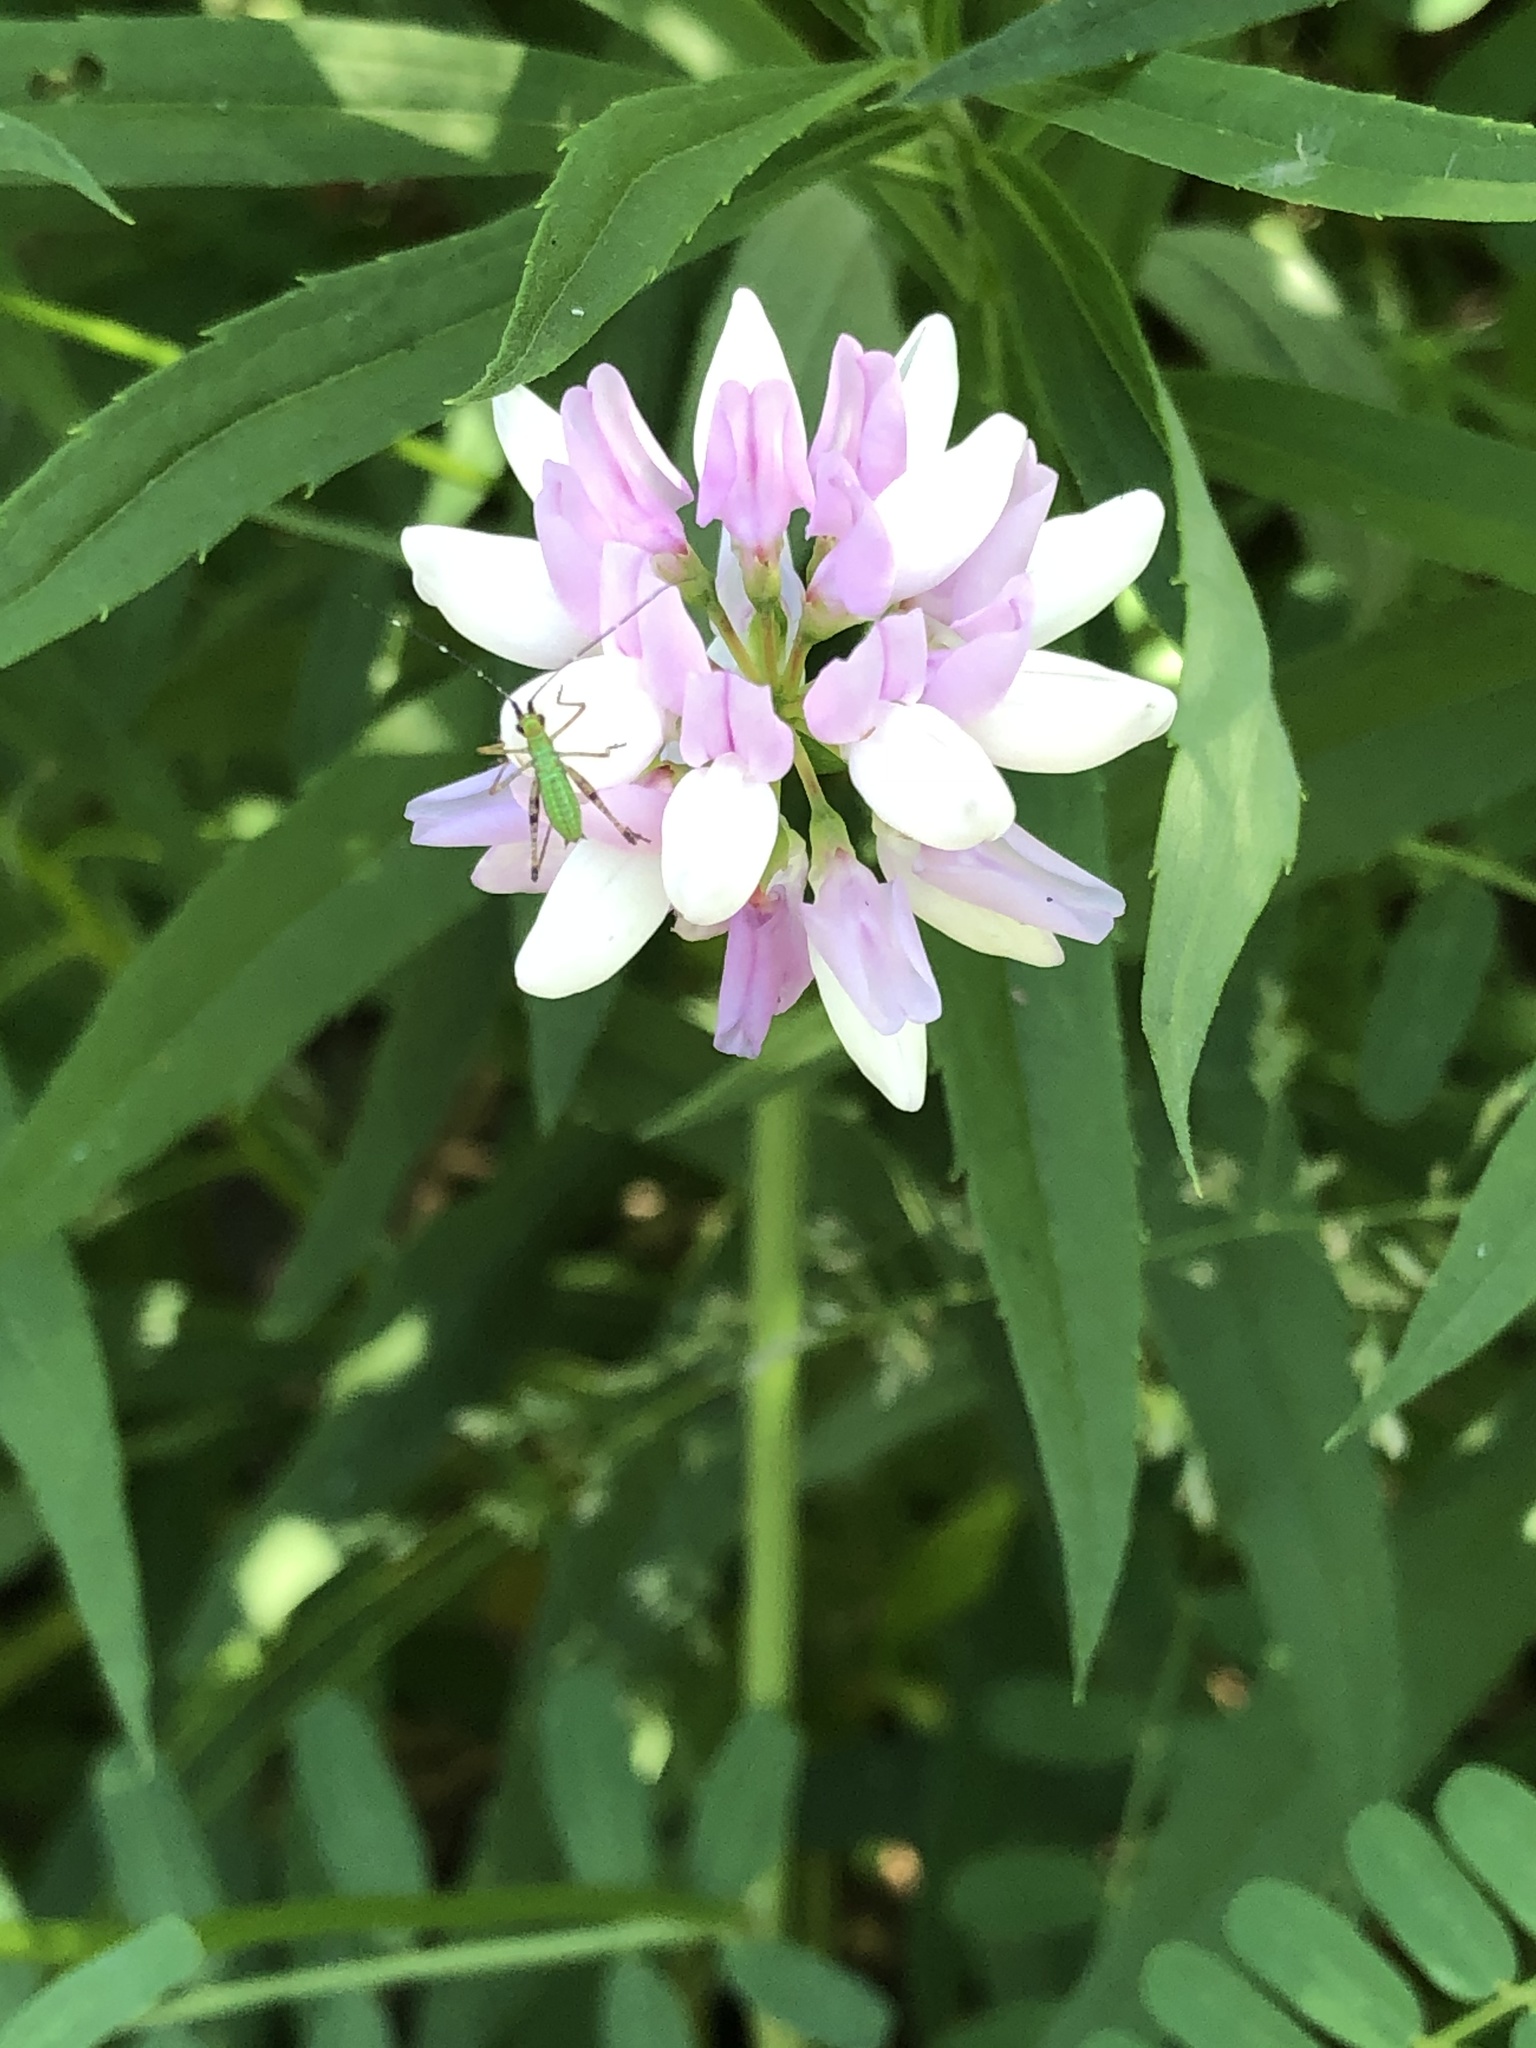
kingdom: Plantae
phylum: Tracheophyta
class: Magnoliopsida
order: Fabales
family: Fabaceae
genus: Coronilla
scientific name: Coronilla varia
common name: Crownvetch
